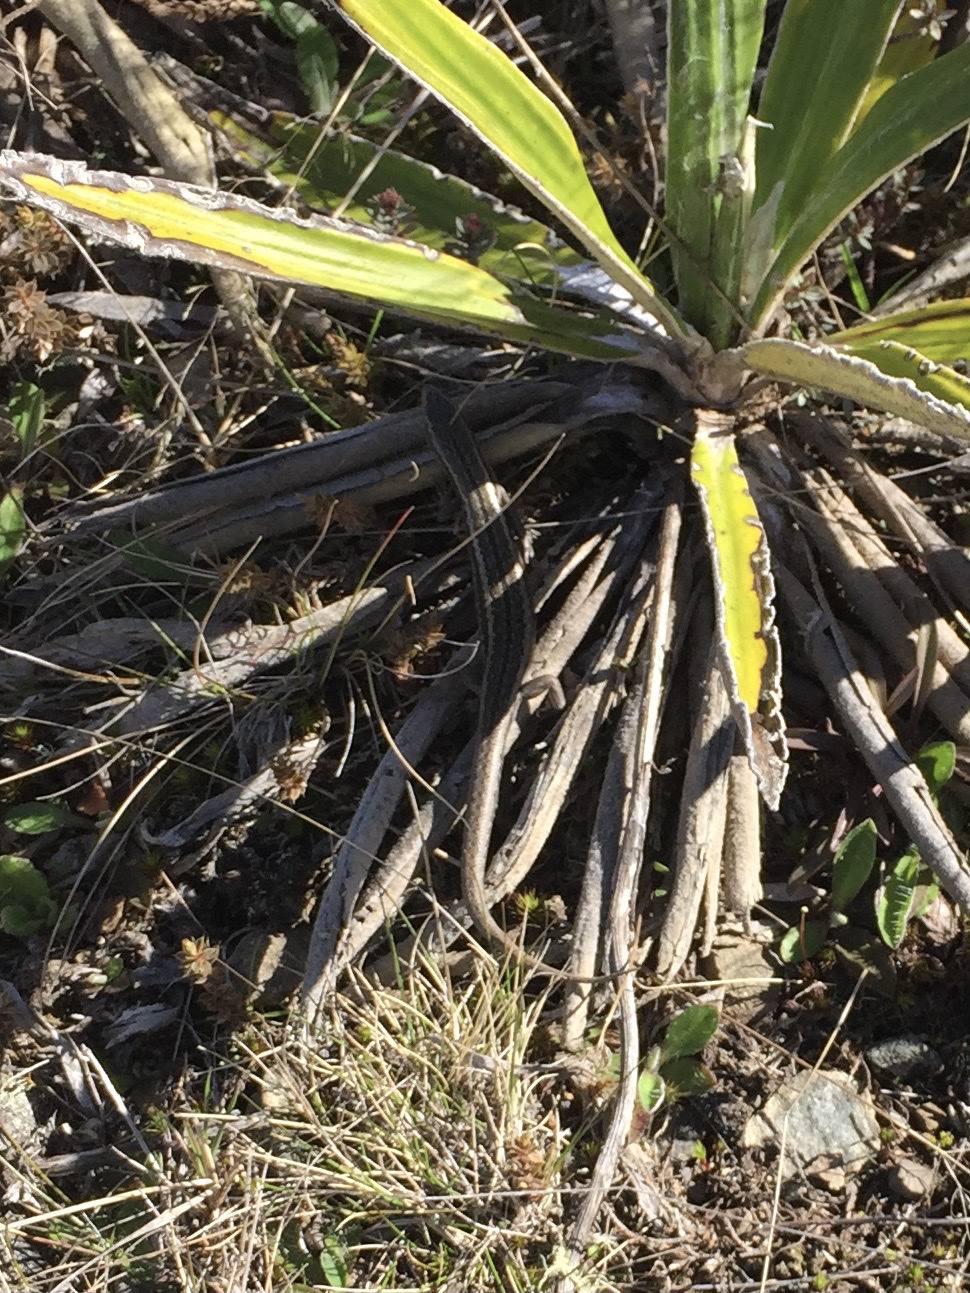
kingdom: Animalia
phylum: Chordata
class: Squamata
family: Scincidae
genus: Oligosoma
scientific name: Oligosoma maccanni
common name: Mccann’s skink
